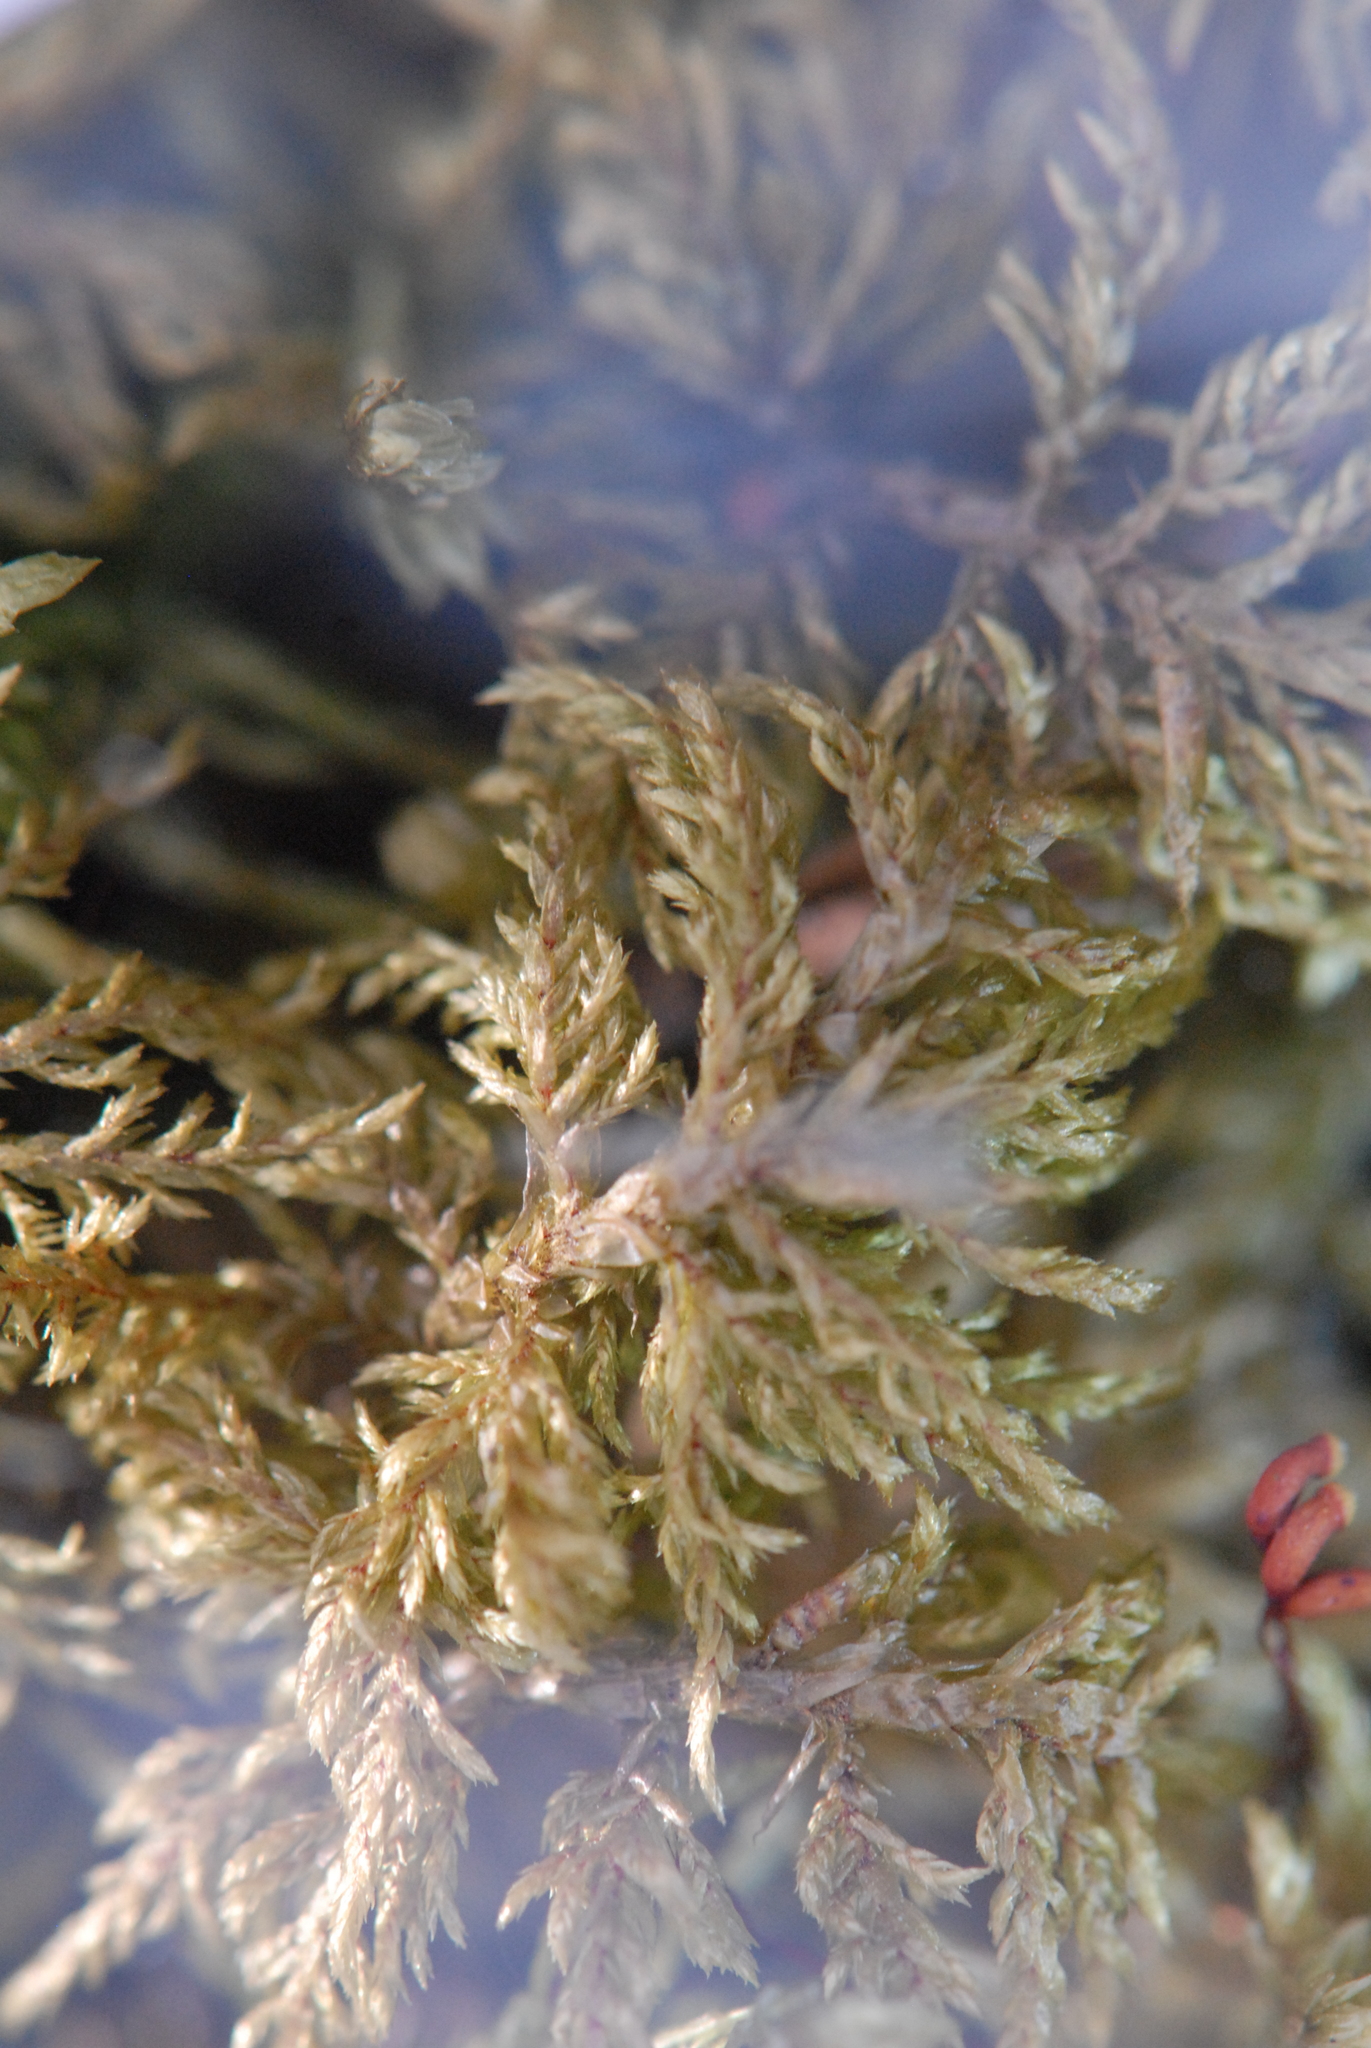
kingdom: Plantae
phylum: Bryophyta
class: Bryopsida
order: Hypnales
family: Hylocomiaceae
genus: Hylocomium
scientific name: Hylocomium splendens
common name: Stairstep moss
